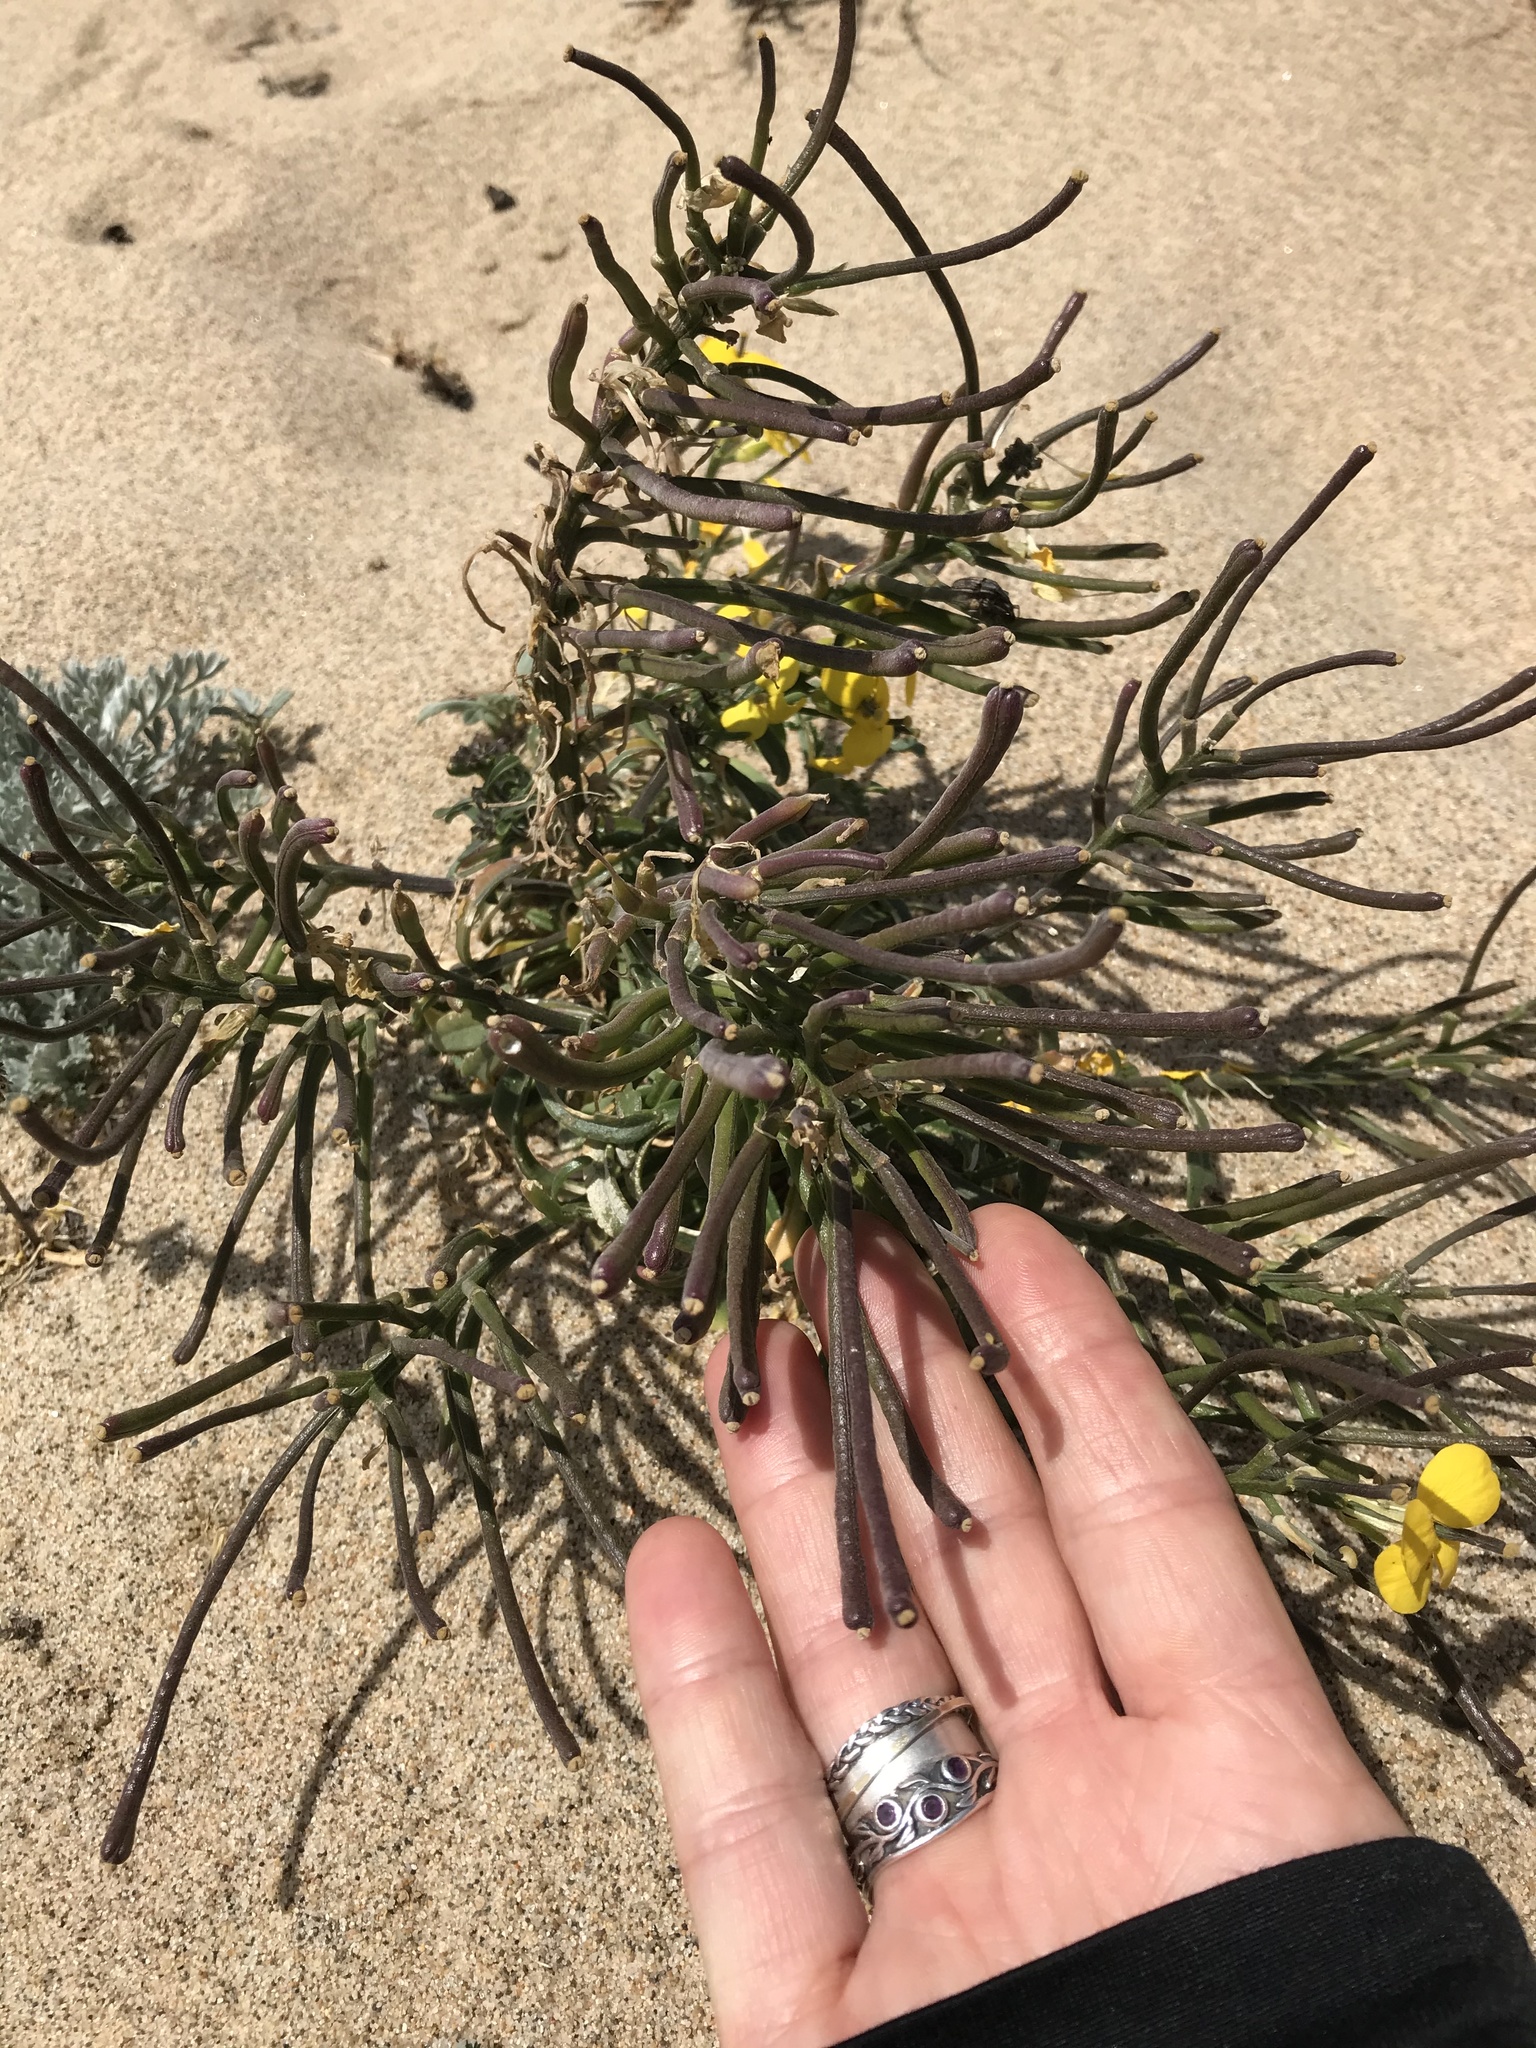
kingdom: Plantae
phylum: Tracheophyta
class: Magnoliopsida
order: Brassicales
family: Brassicaceae
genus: Erysimum
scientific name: Erysimum ammophilum
